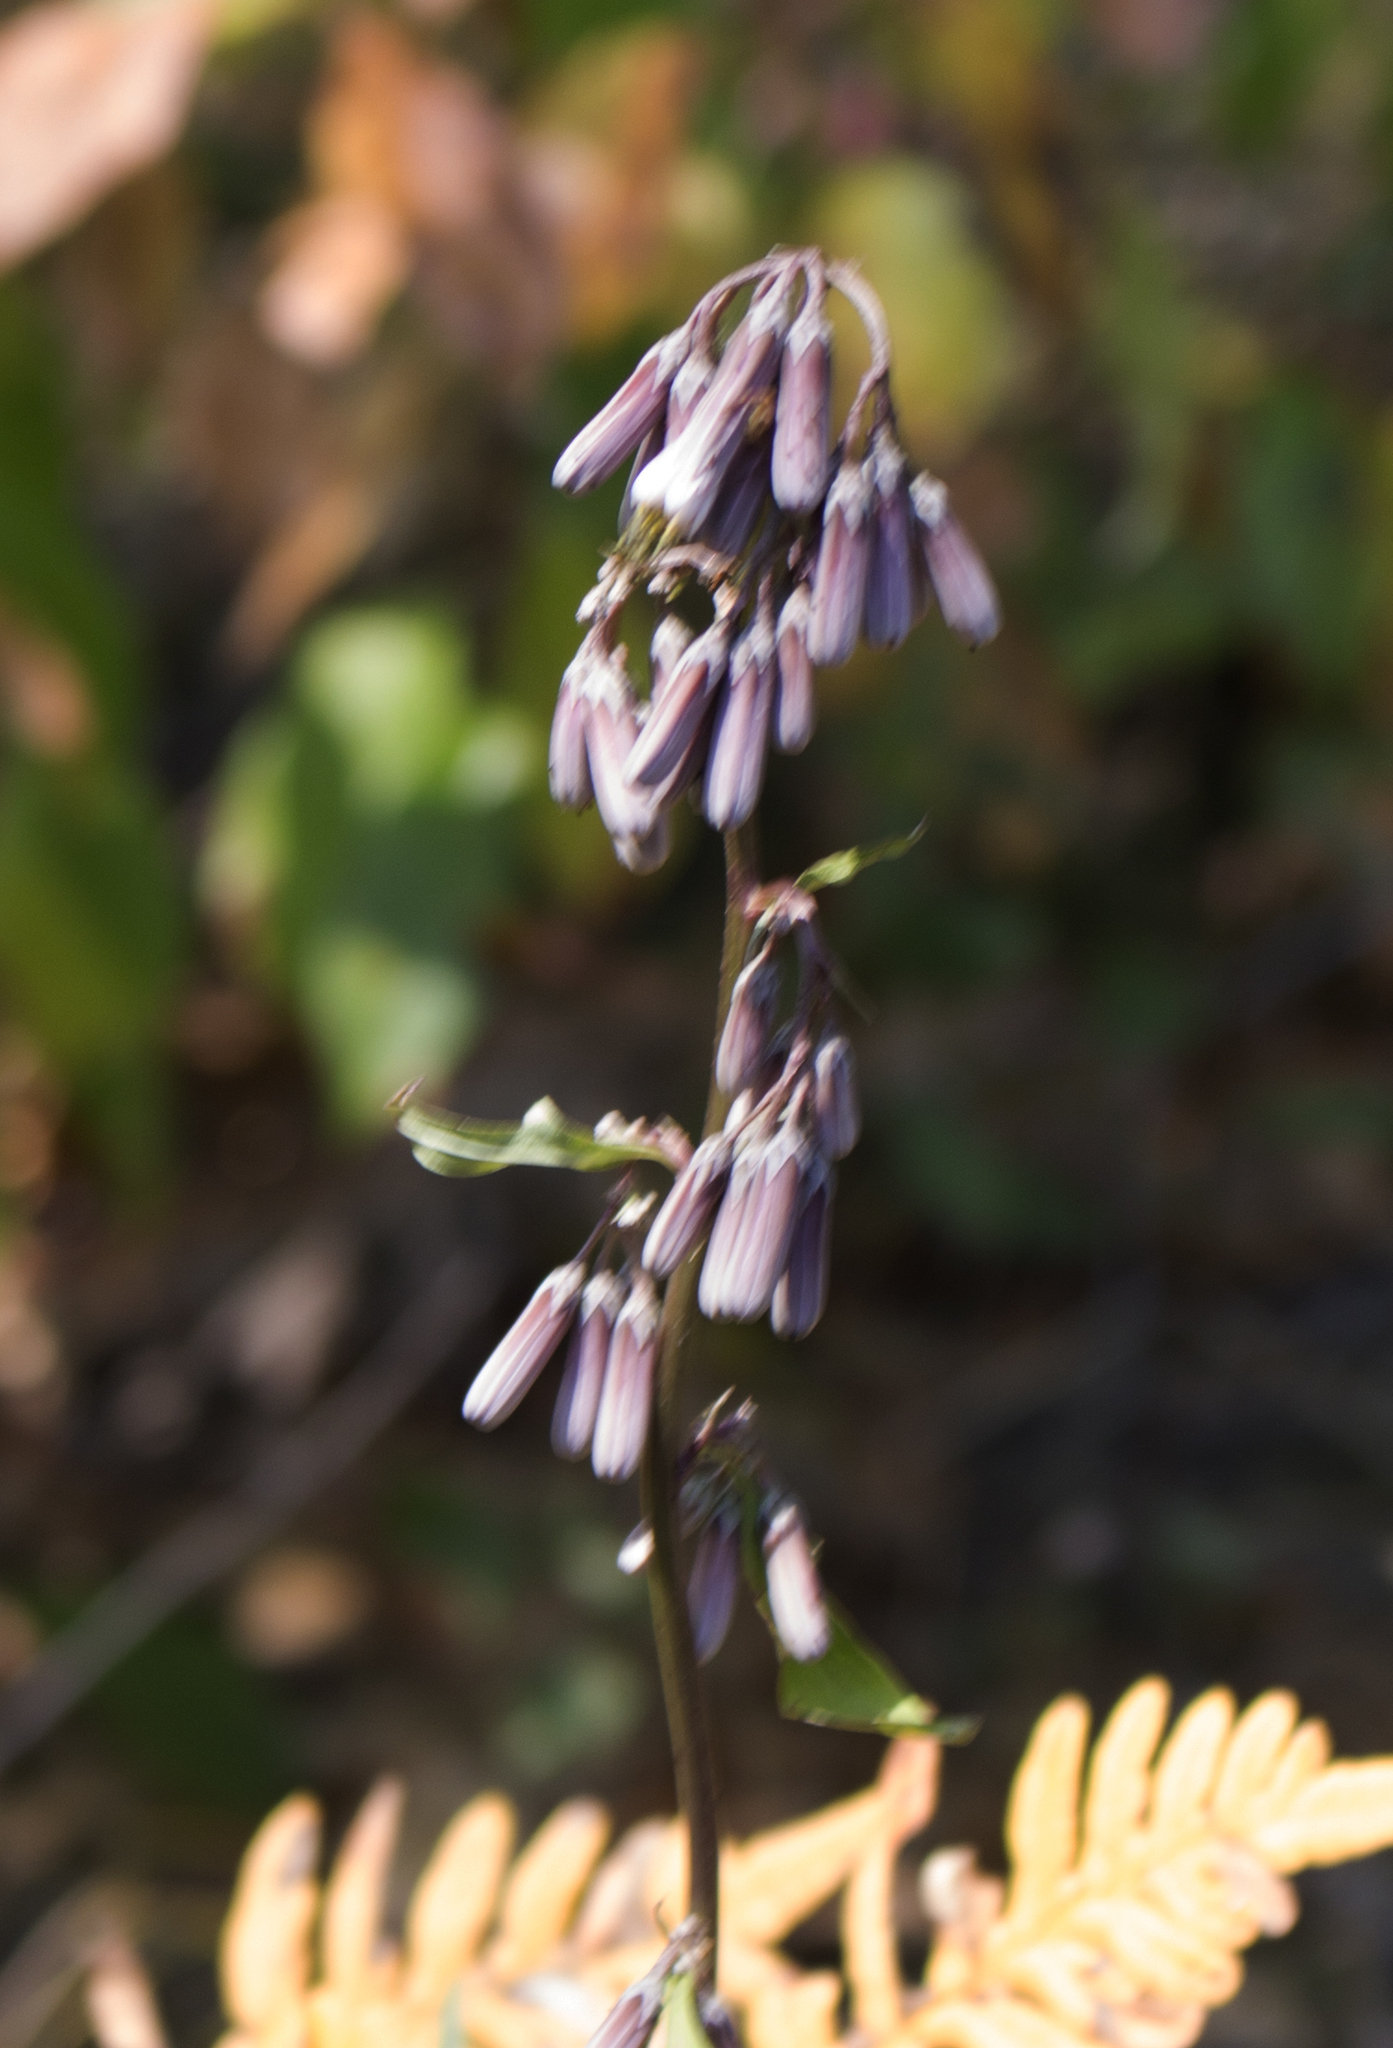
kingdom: Plantae
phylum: Tracheophyta
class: Magnoliopsida
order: Asterales
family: Asteraceae
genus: Nabalus
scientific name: Nabalus albus
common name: White rattlesnakeroot
